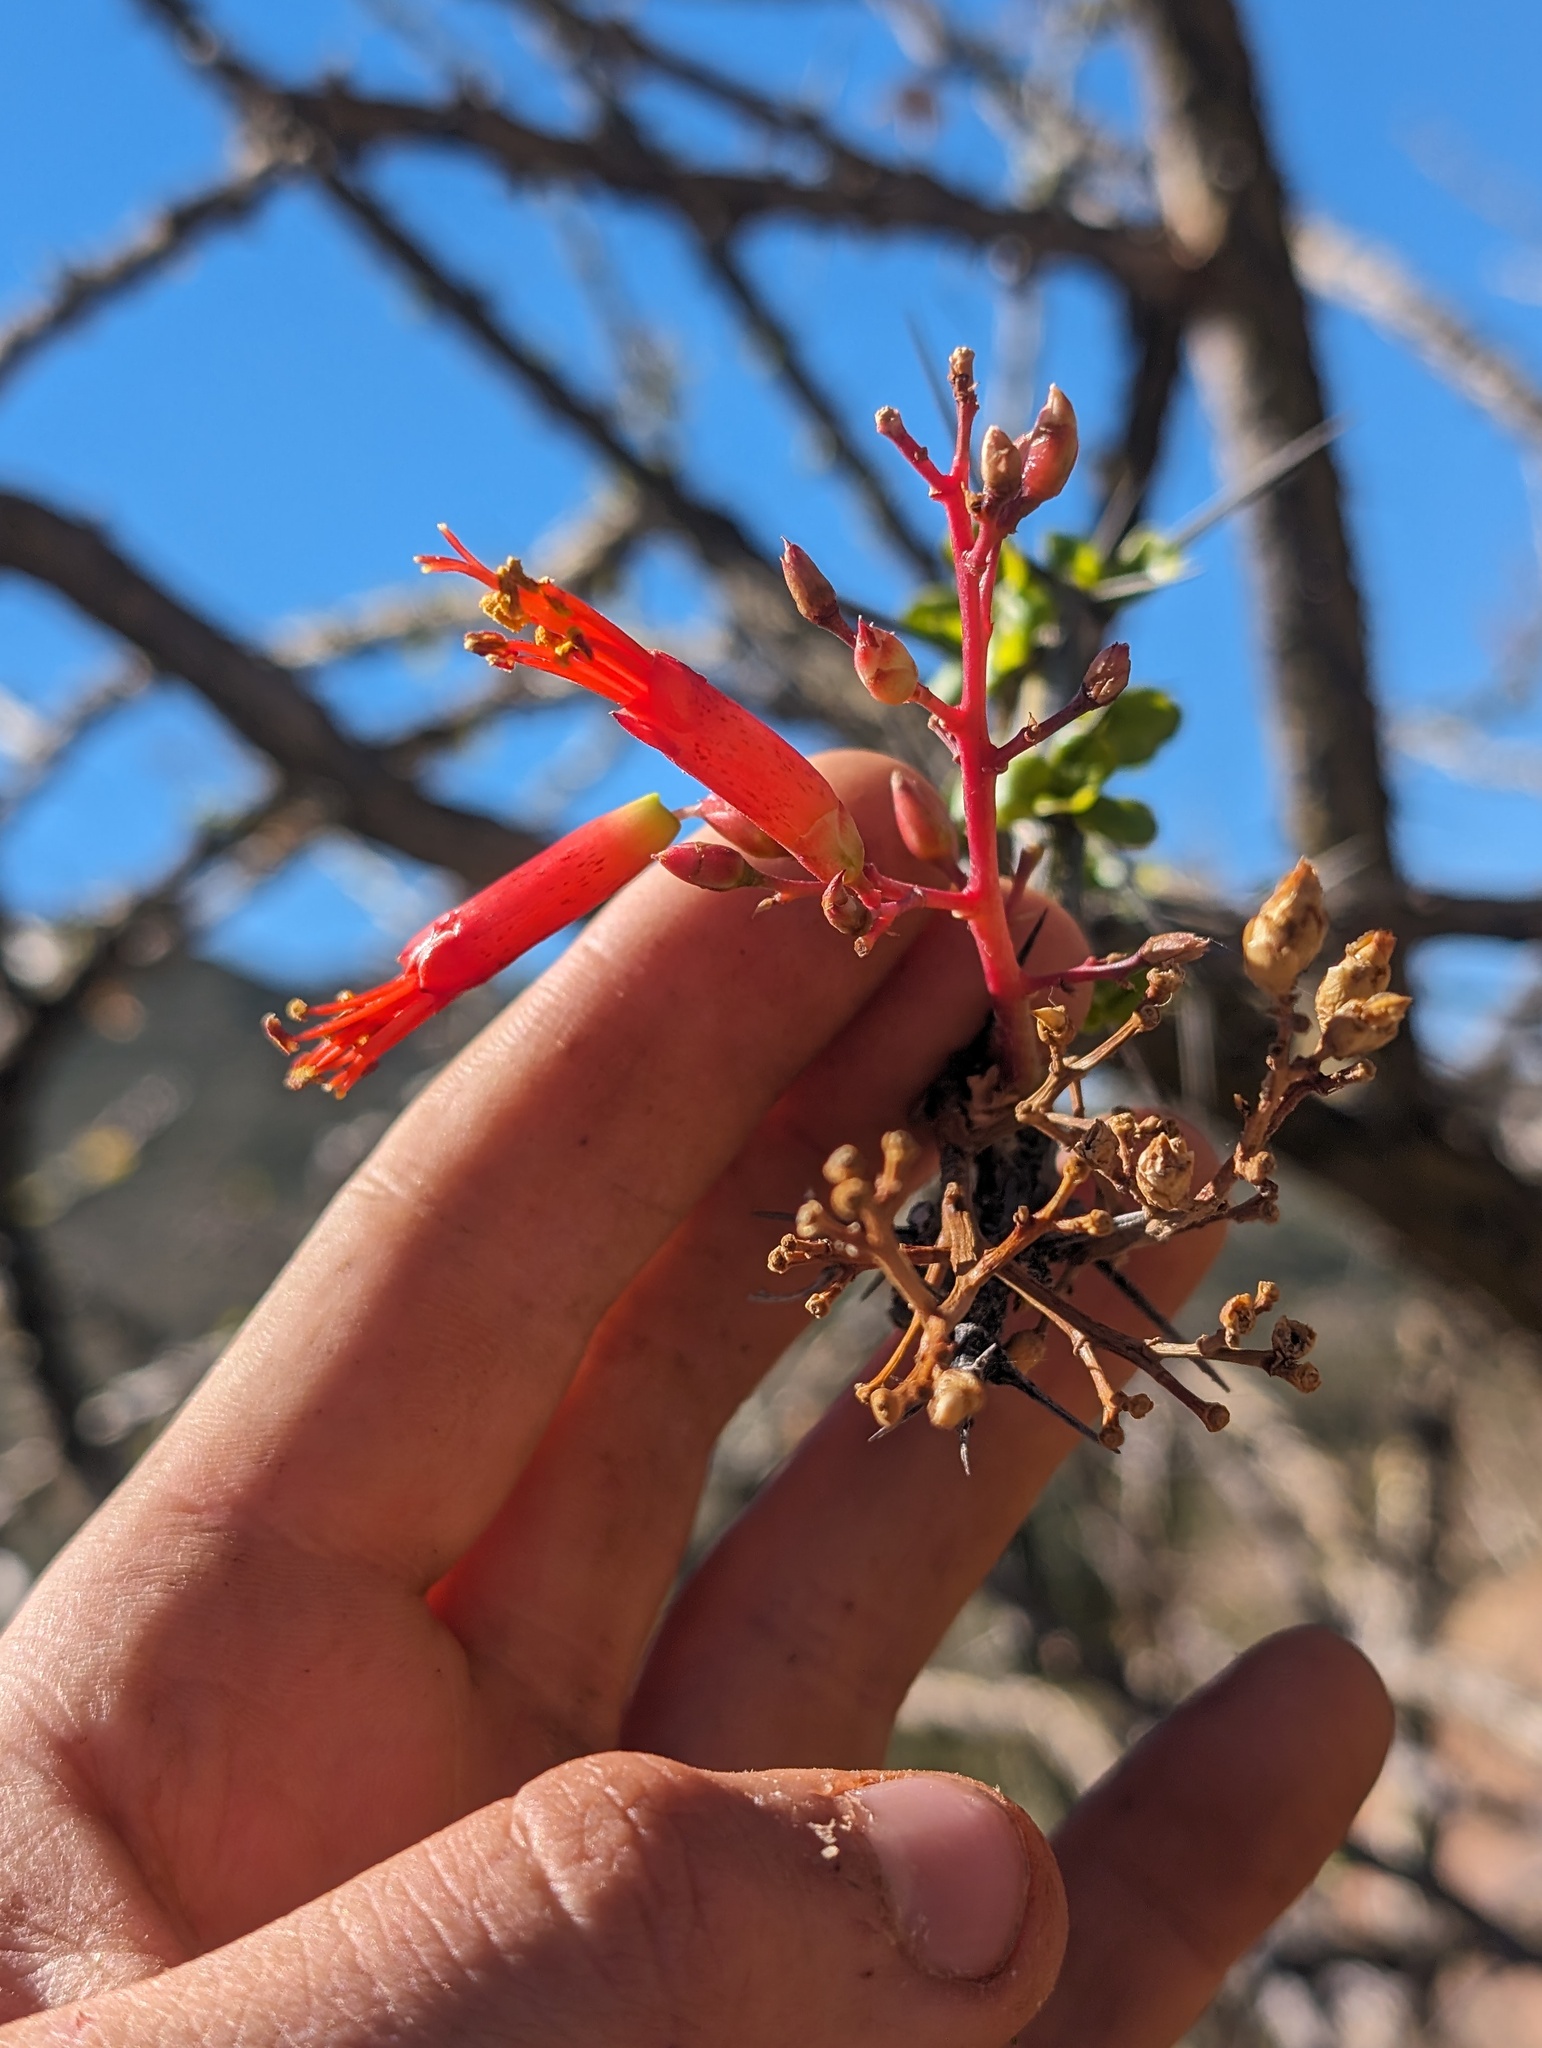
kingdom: Plantae
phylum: Tracheophyta
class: Magnoliopsida
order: Ericales
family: Fouquieriaceae
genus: Fouquieria
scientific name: Fouquieria diguetii
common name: Adam's tree
